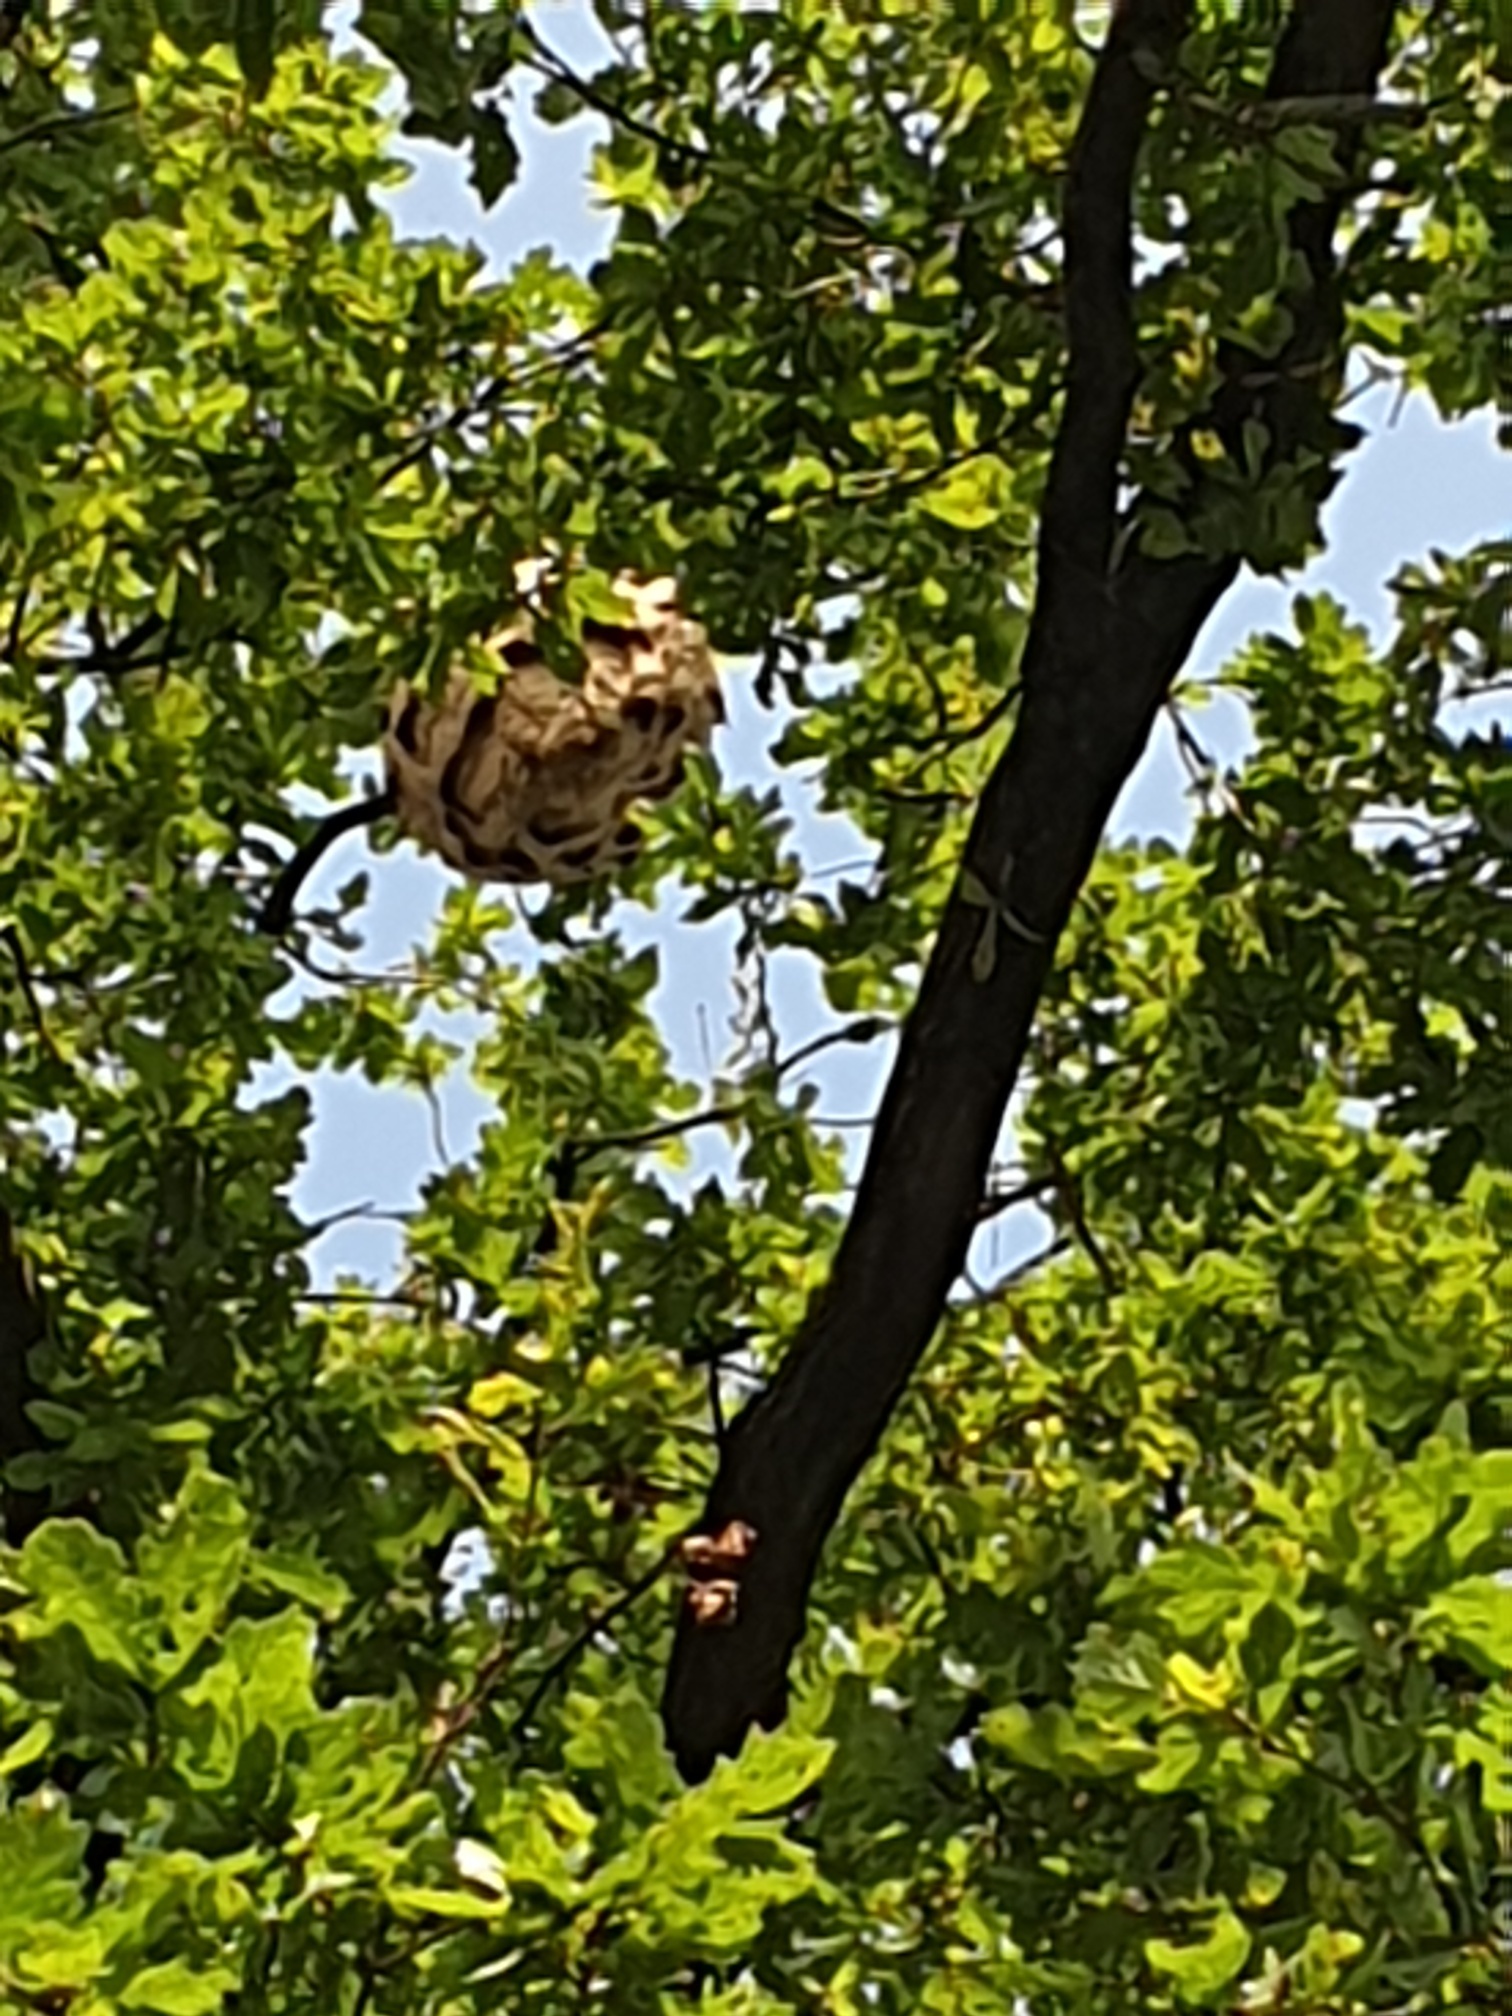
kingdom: Animalia
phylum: Arthropoda
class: Insecta
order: Hymenoptera
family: Vespidae
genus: Vespa
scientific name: Vespa velutina
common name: Asian hornet
